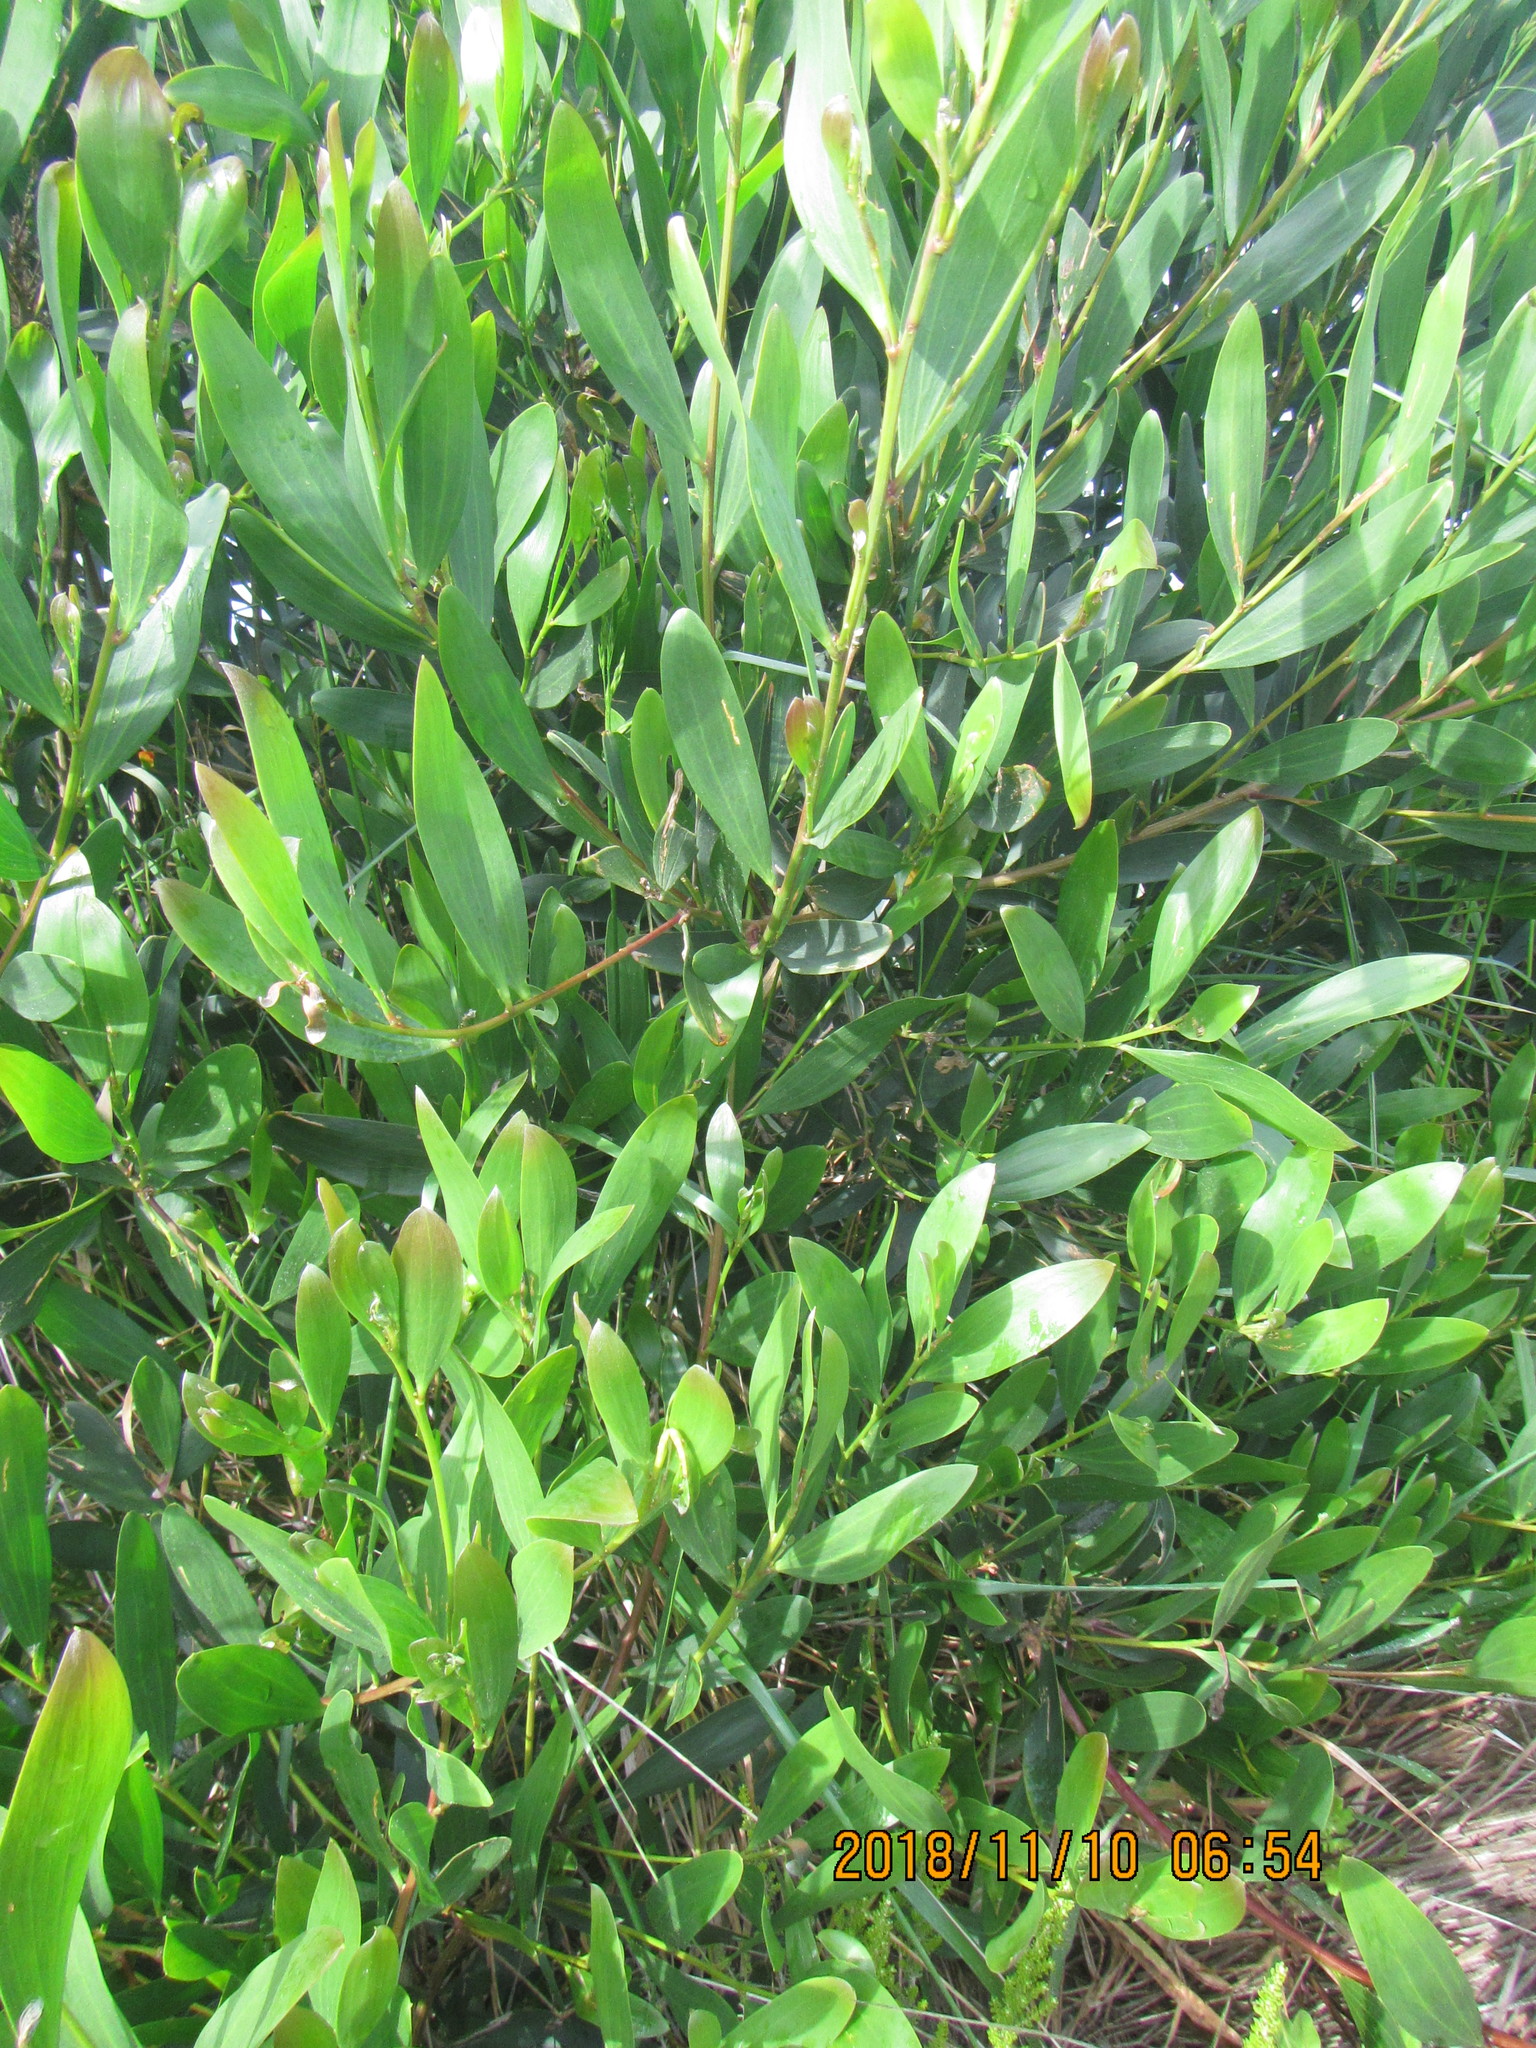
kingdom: Plantae
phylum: Tracheophyta
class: Magnoliopsida
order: Fabales
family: Fabaceae
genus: Acacia
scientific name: Acacia longifolia
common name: Sydney golden wattle
